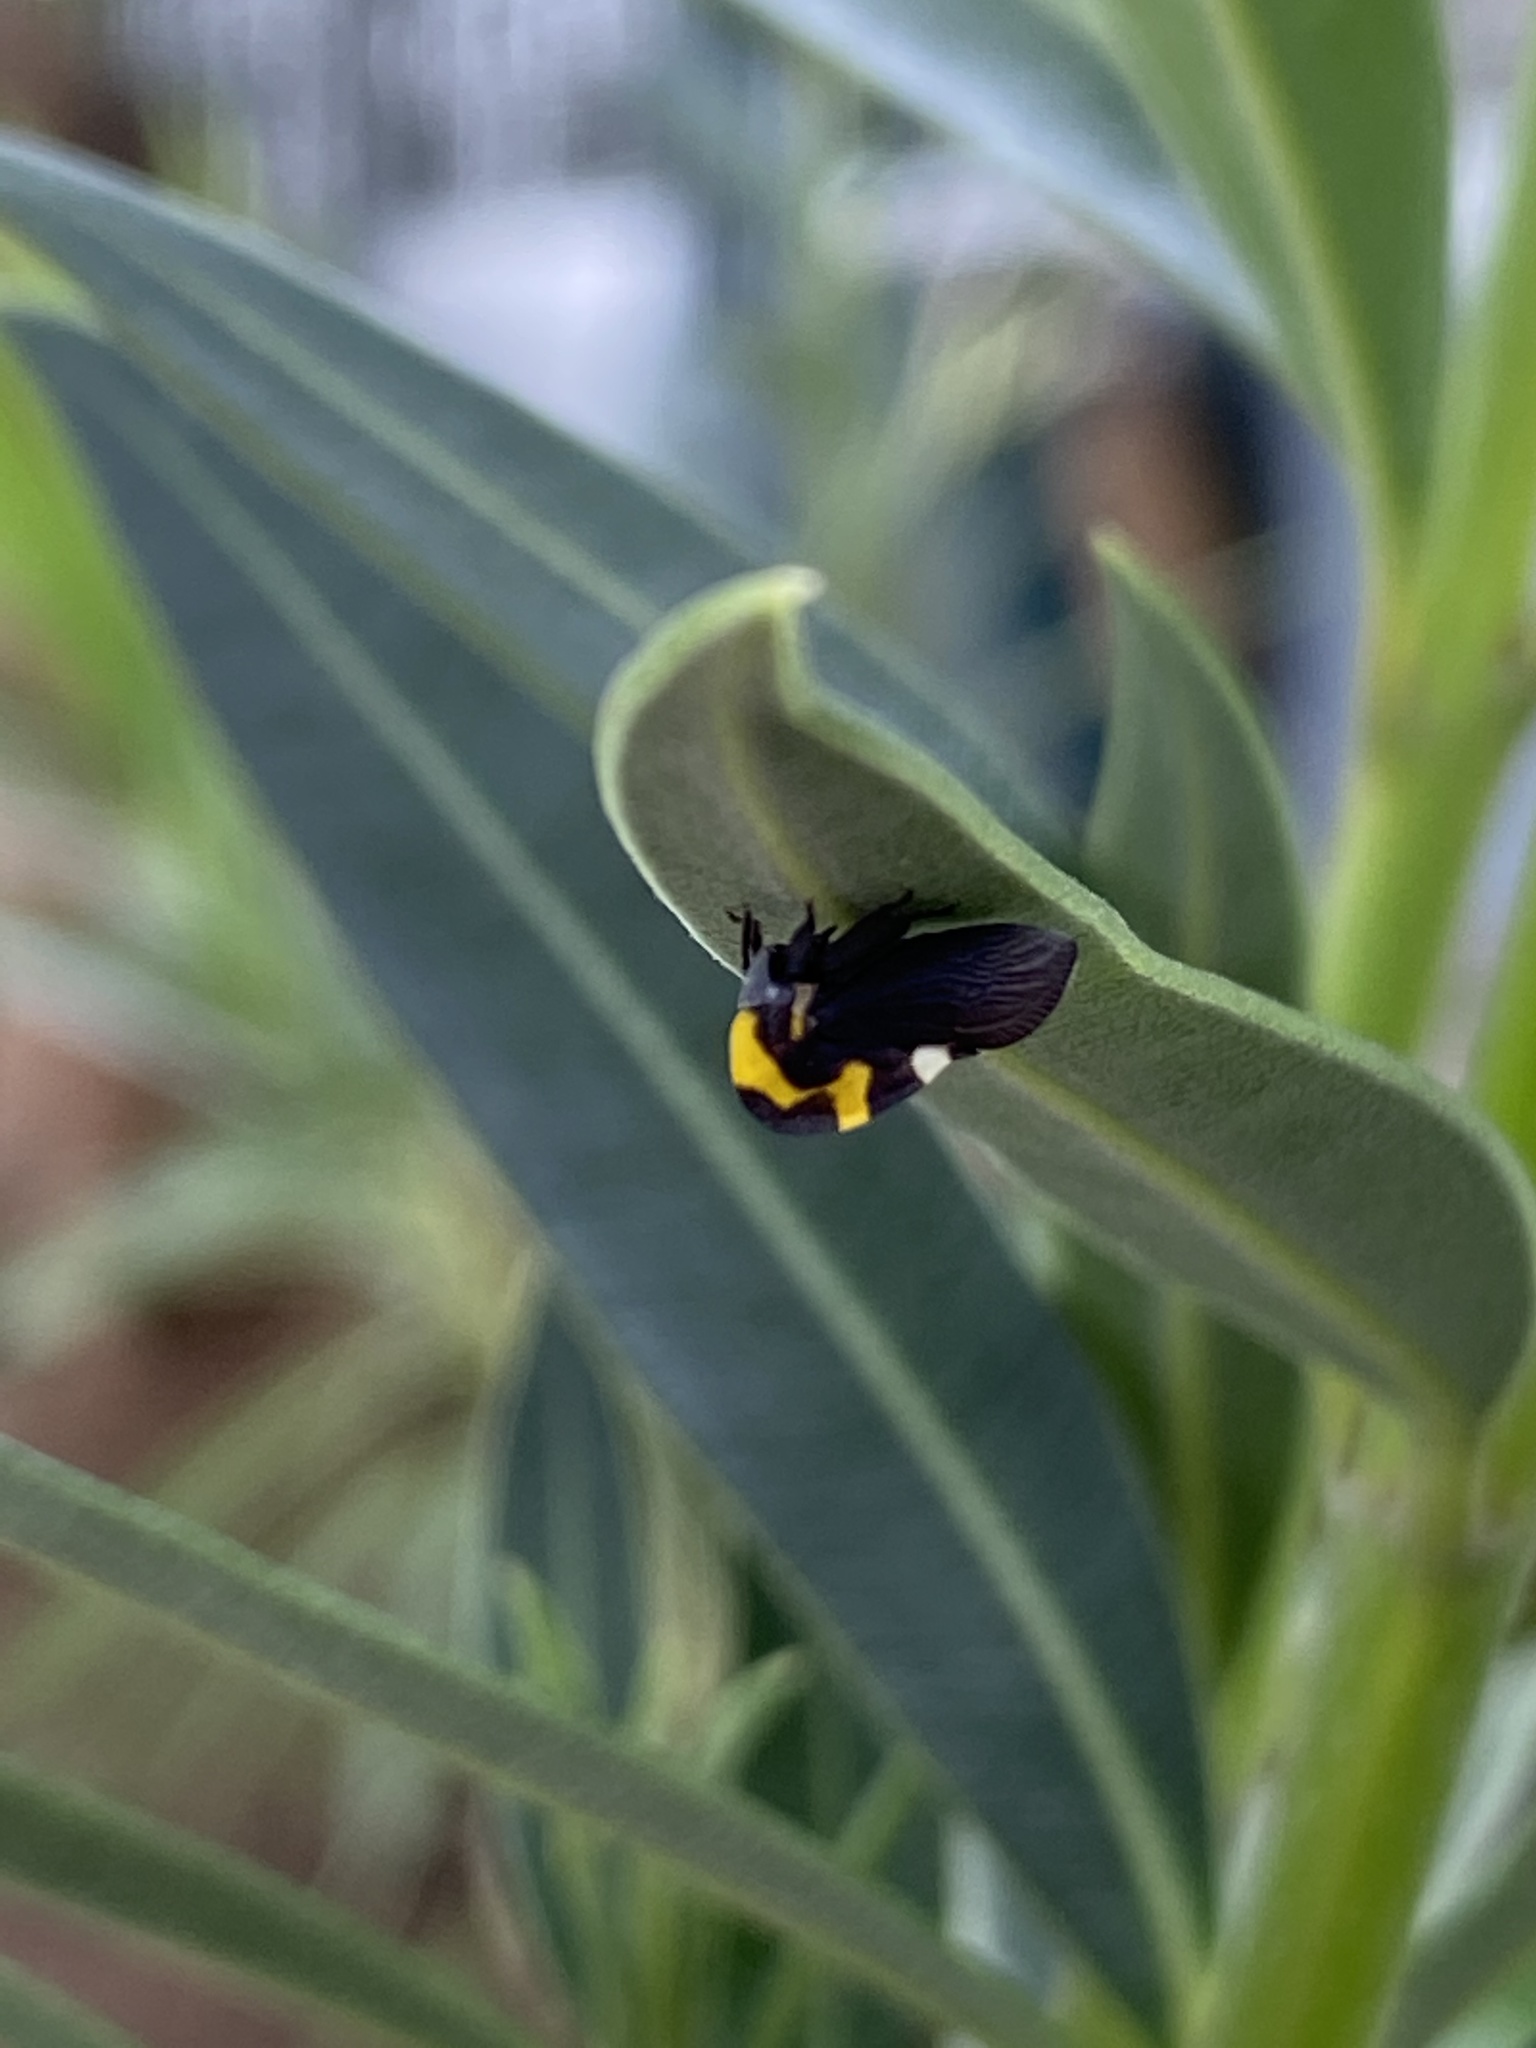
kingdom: Animalia
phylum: Arthropoda
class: Insecta
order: Hemiptera
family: Membracidae
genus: Membracis
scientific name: Membracis mexicana
